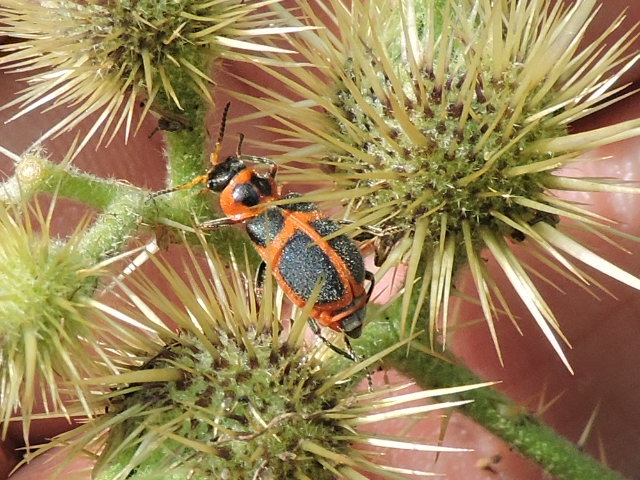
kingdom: Animalia
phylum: Arthropoda
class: Insecta
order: Coleoptera
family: Melyridae
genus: Collops
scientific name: Collops
